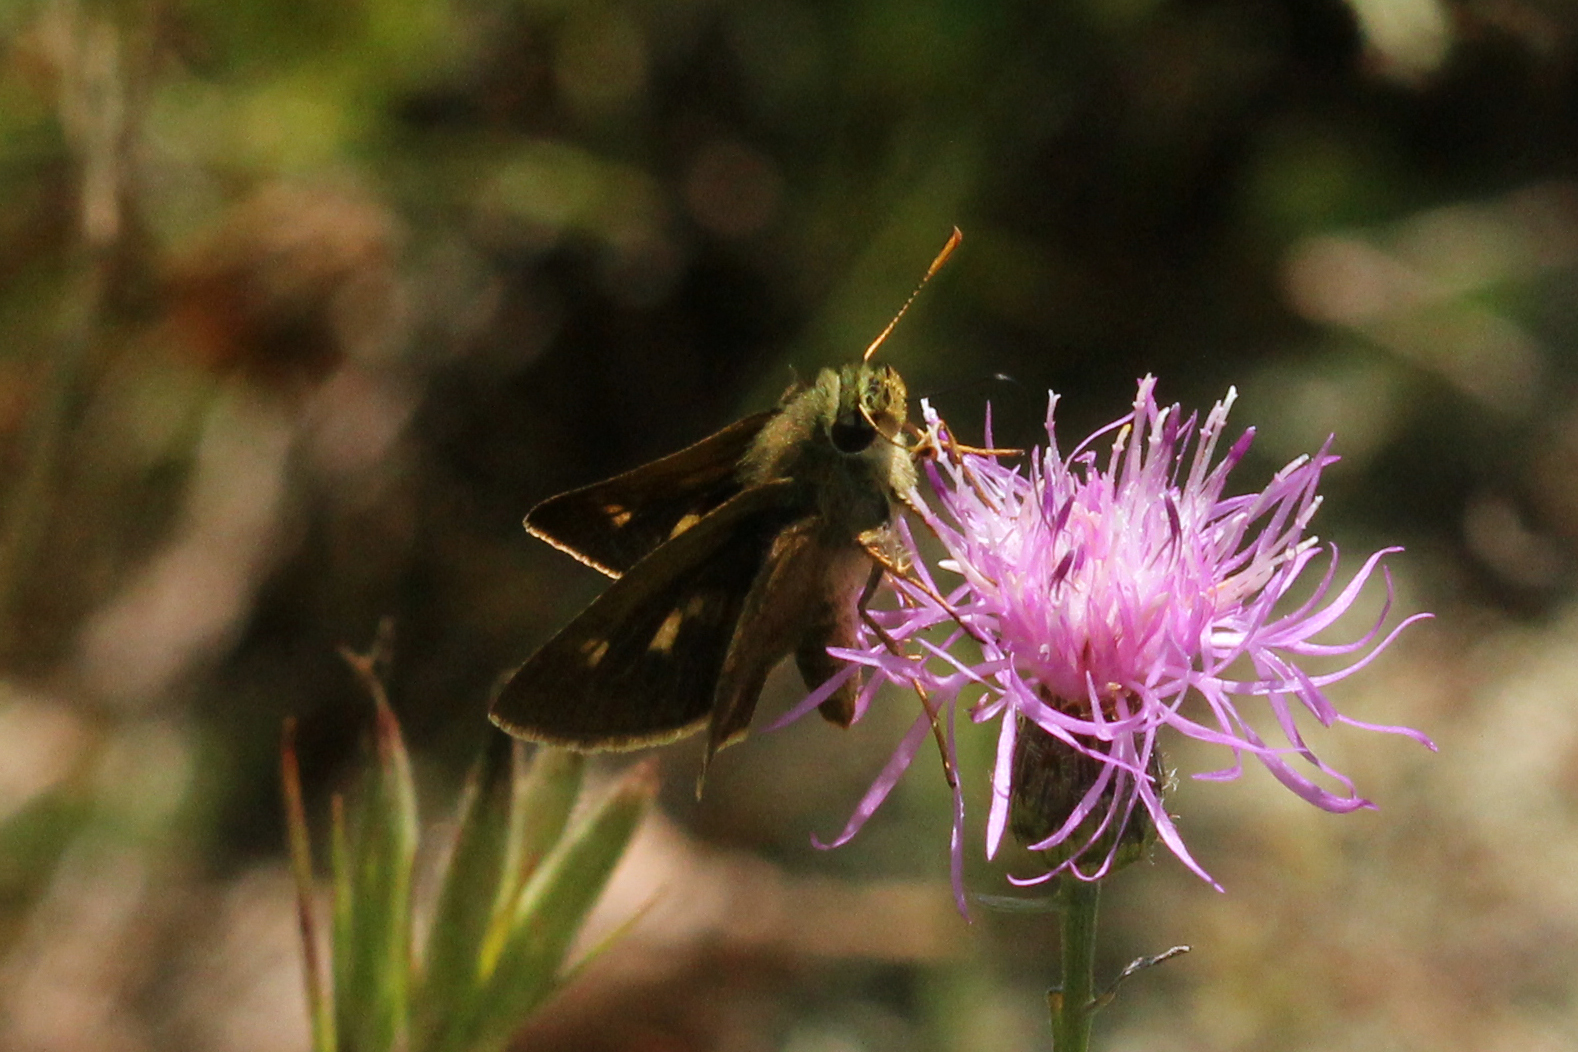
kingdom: Animalia
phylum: Arthropoda
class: Insecta
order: Lepidoptera
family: Hesperiidae
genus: Polites
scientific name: Polites egeremet
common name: Northern broken-dash
